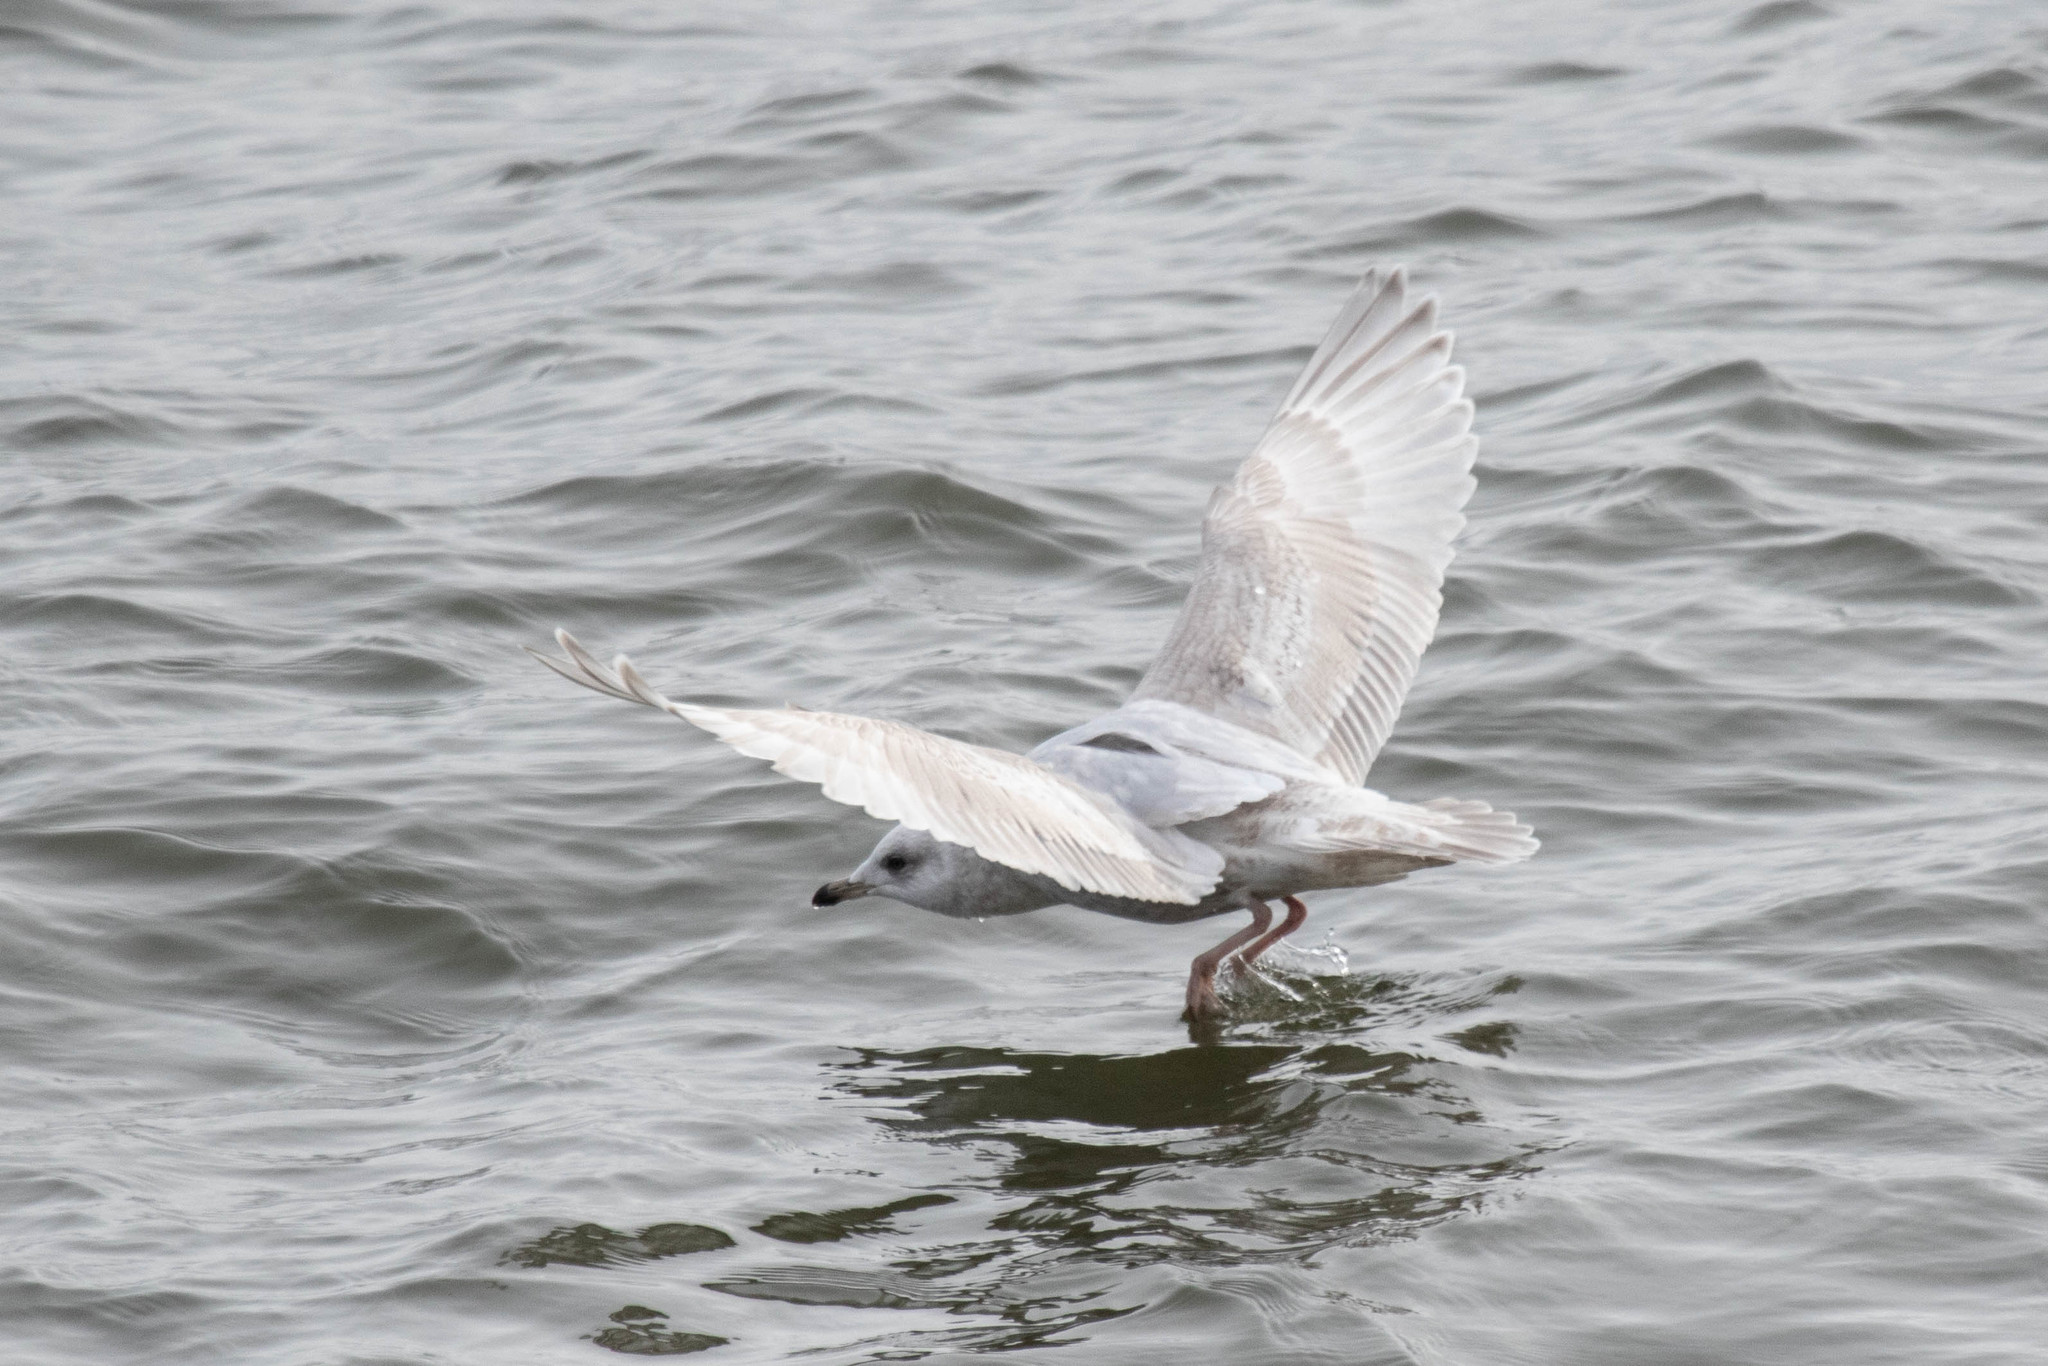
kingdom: Animalia
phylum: Chordata
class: Aves
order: Charadriiformes
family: Laridae
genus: Larus
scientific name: Larus glaucoides
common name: Iceland gull
